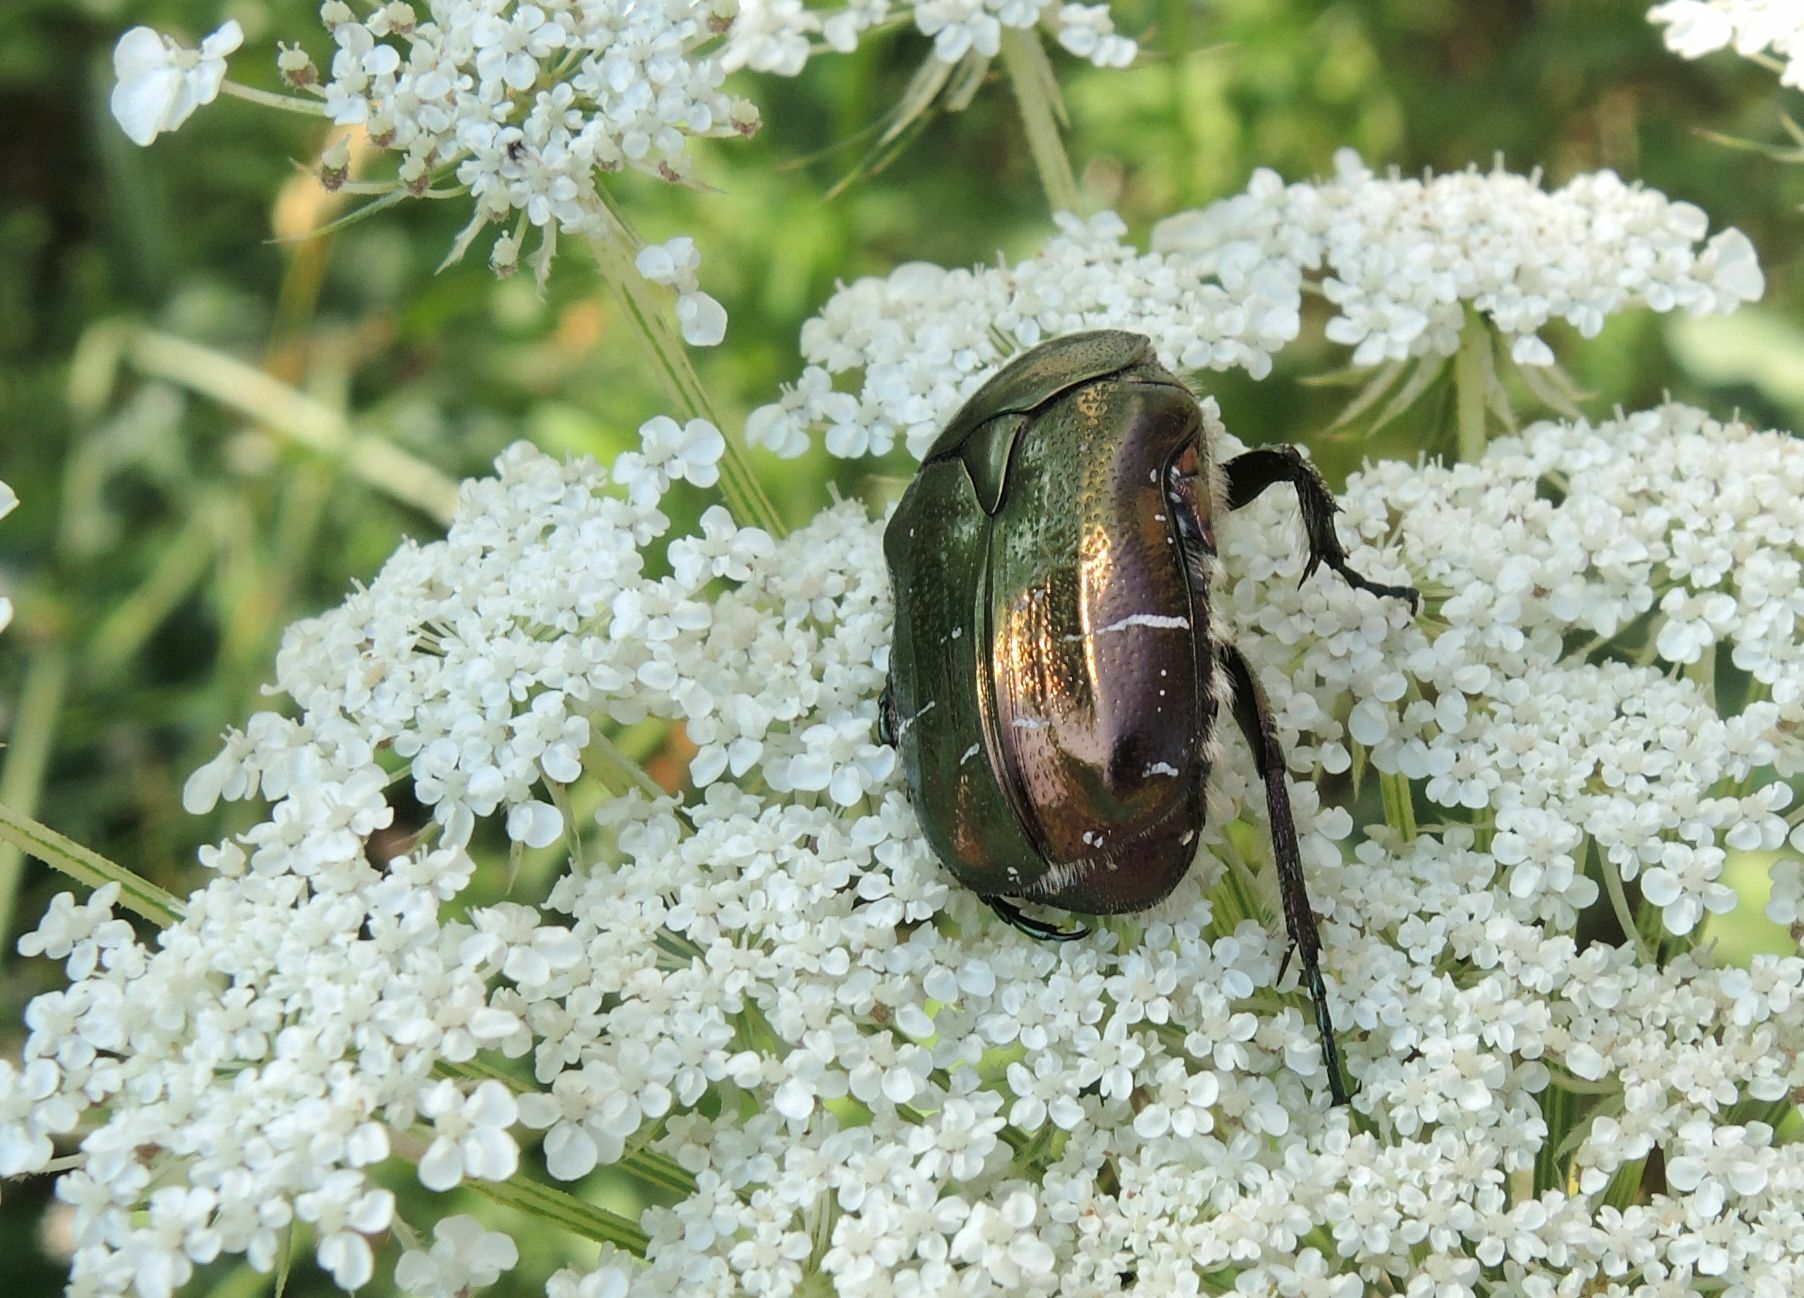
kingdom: Animalia
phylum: Arthropoda
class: Insecta
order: Coleoptera
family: Scarabaeidae
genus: Cetonia
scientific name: Cetonia aurata
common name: Rose chafer
